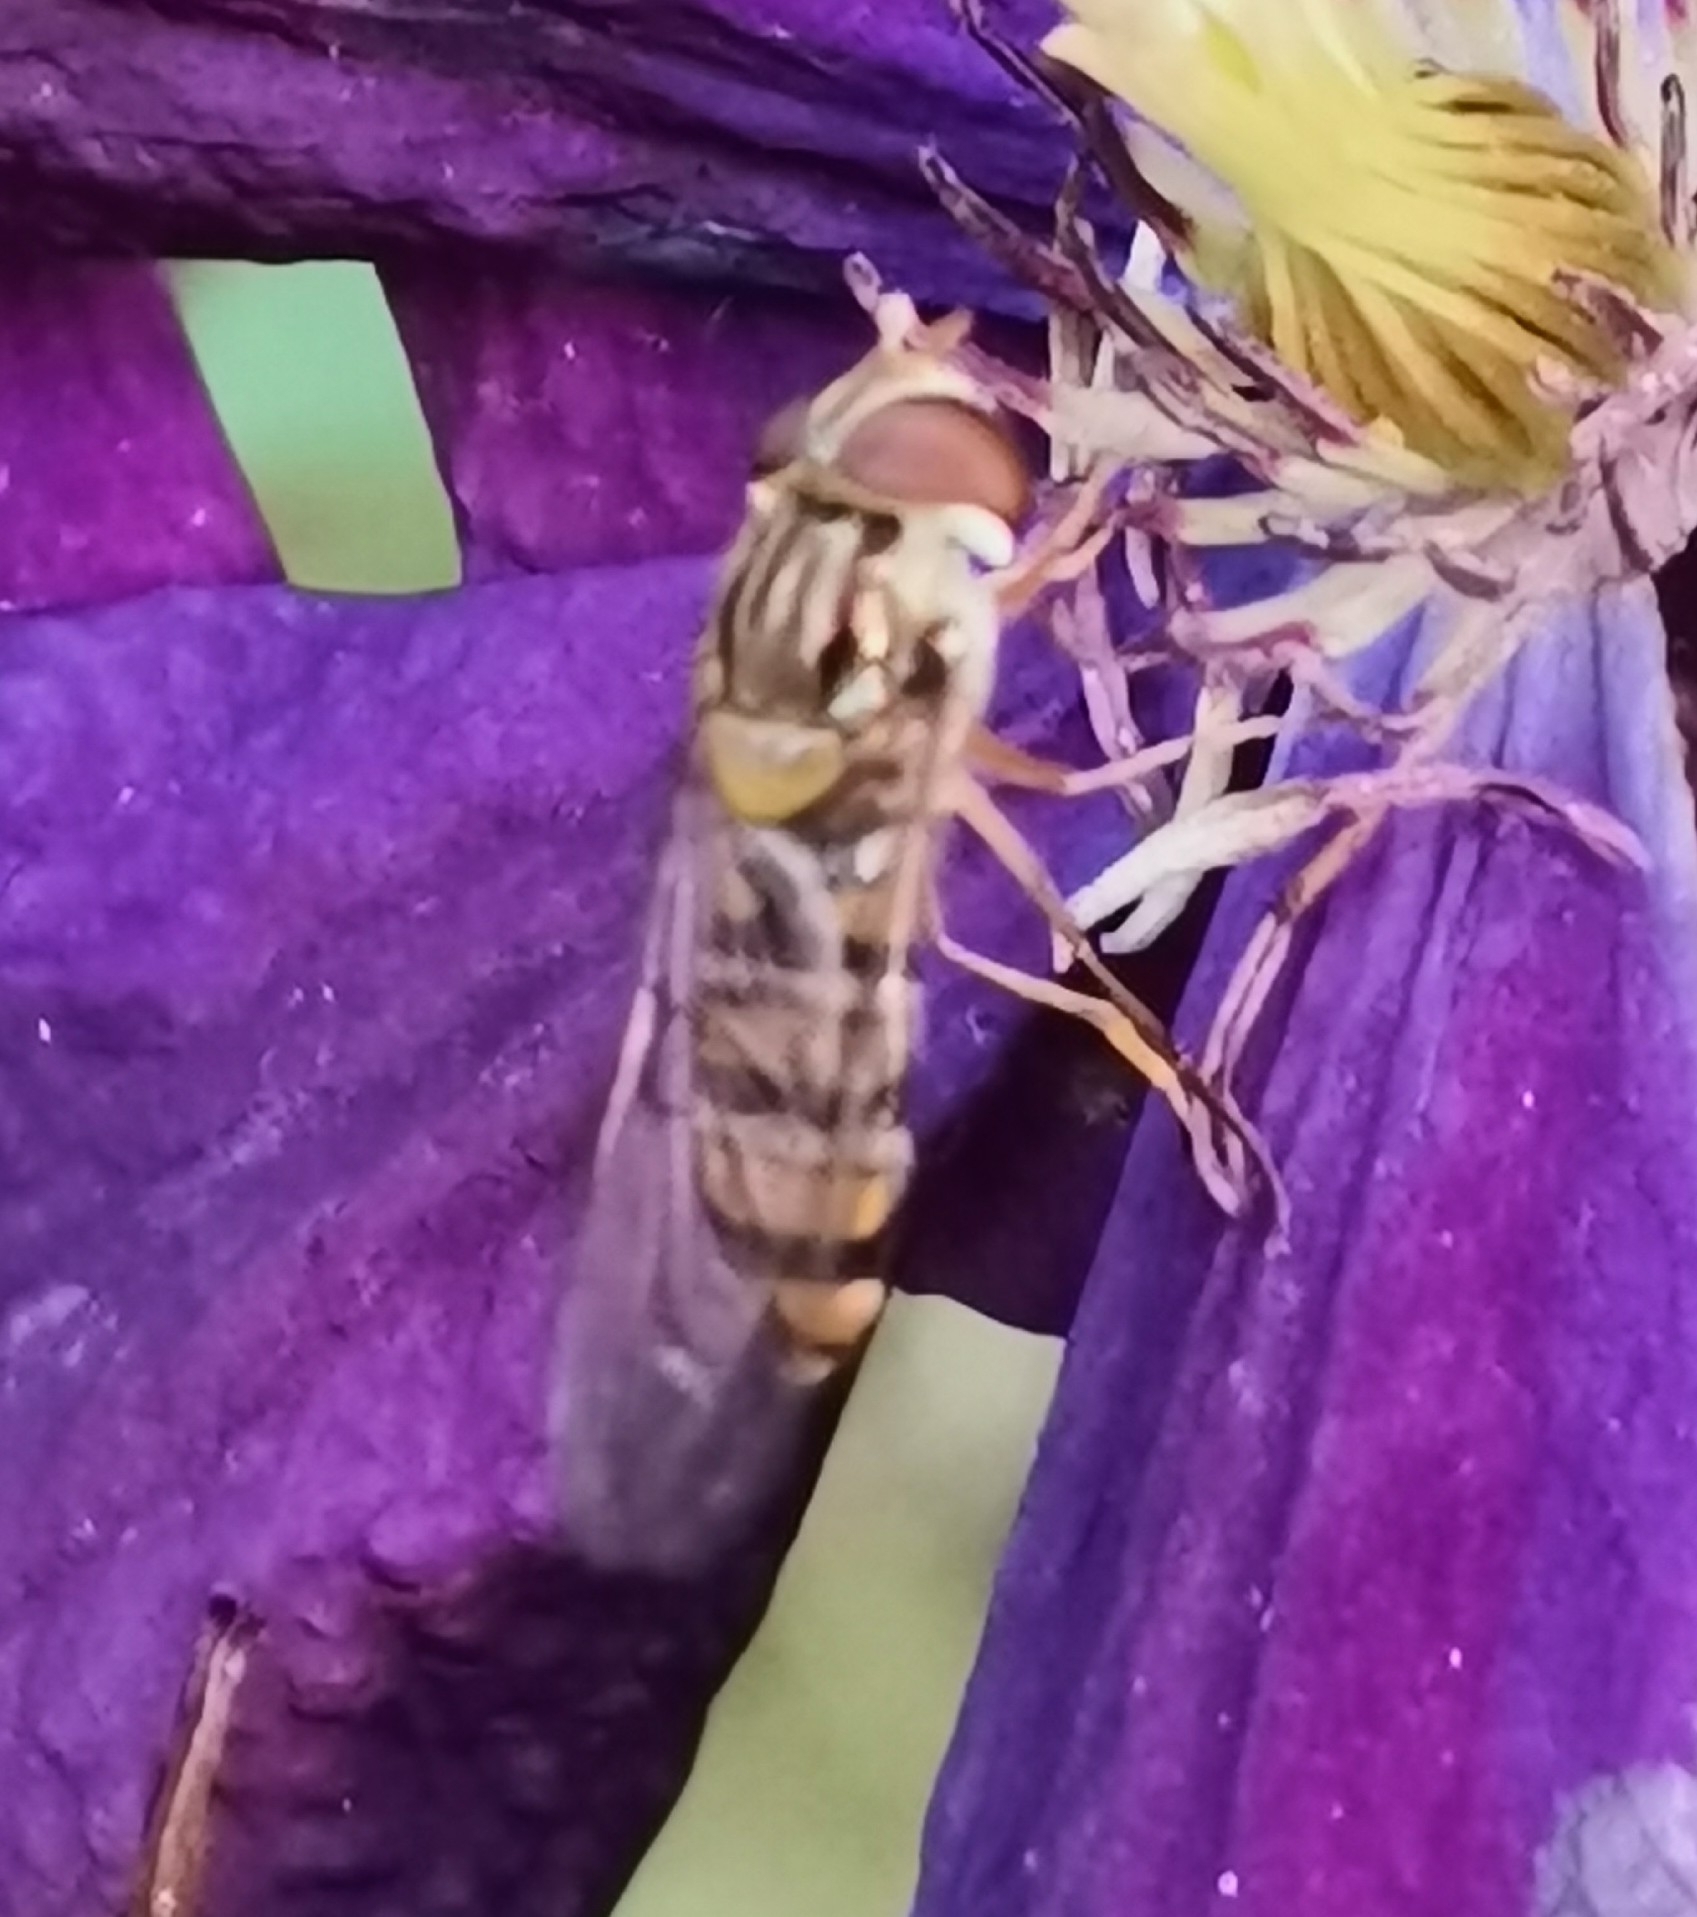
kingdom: Animalia
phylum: Arthropoda
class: Insecta
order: Diptera
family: Syrphidae
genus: Episyrphus
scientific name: Episyrphus balteatus
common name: Marmalade hoverfly
